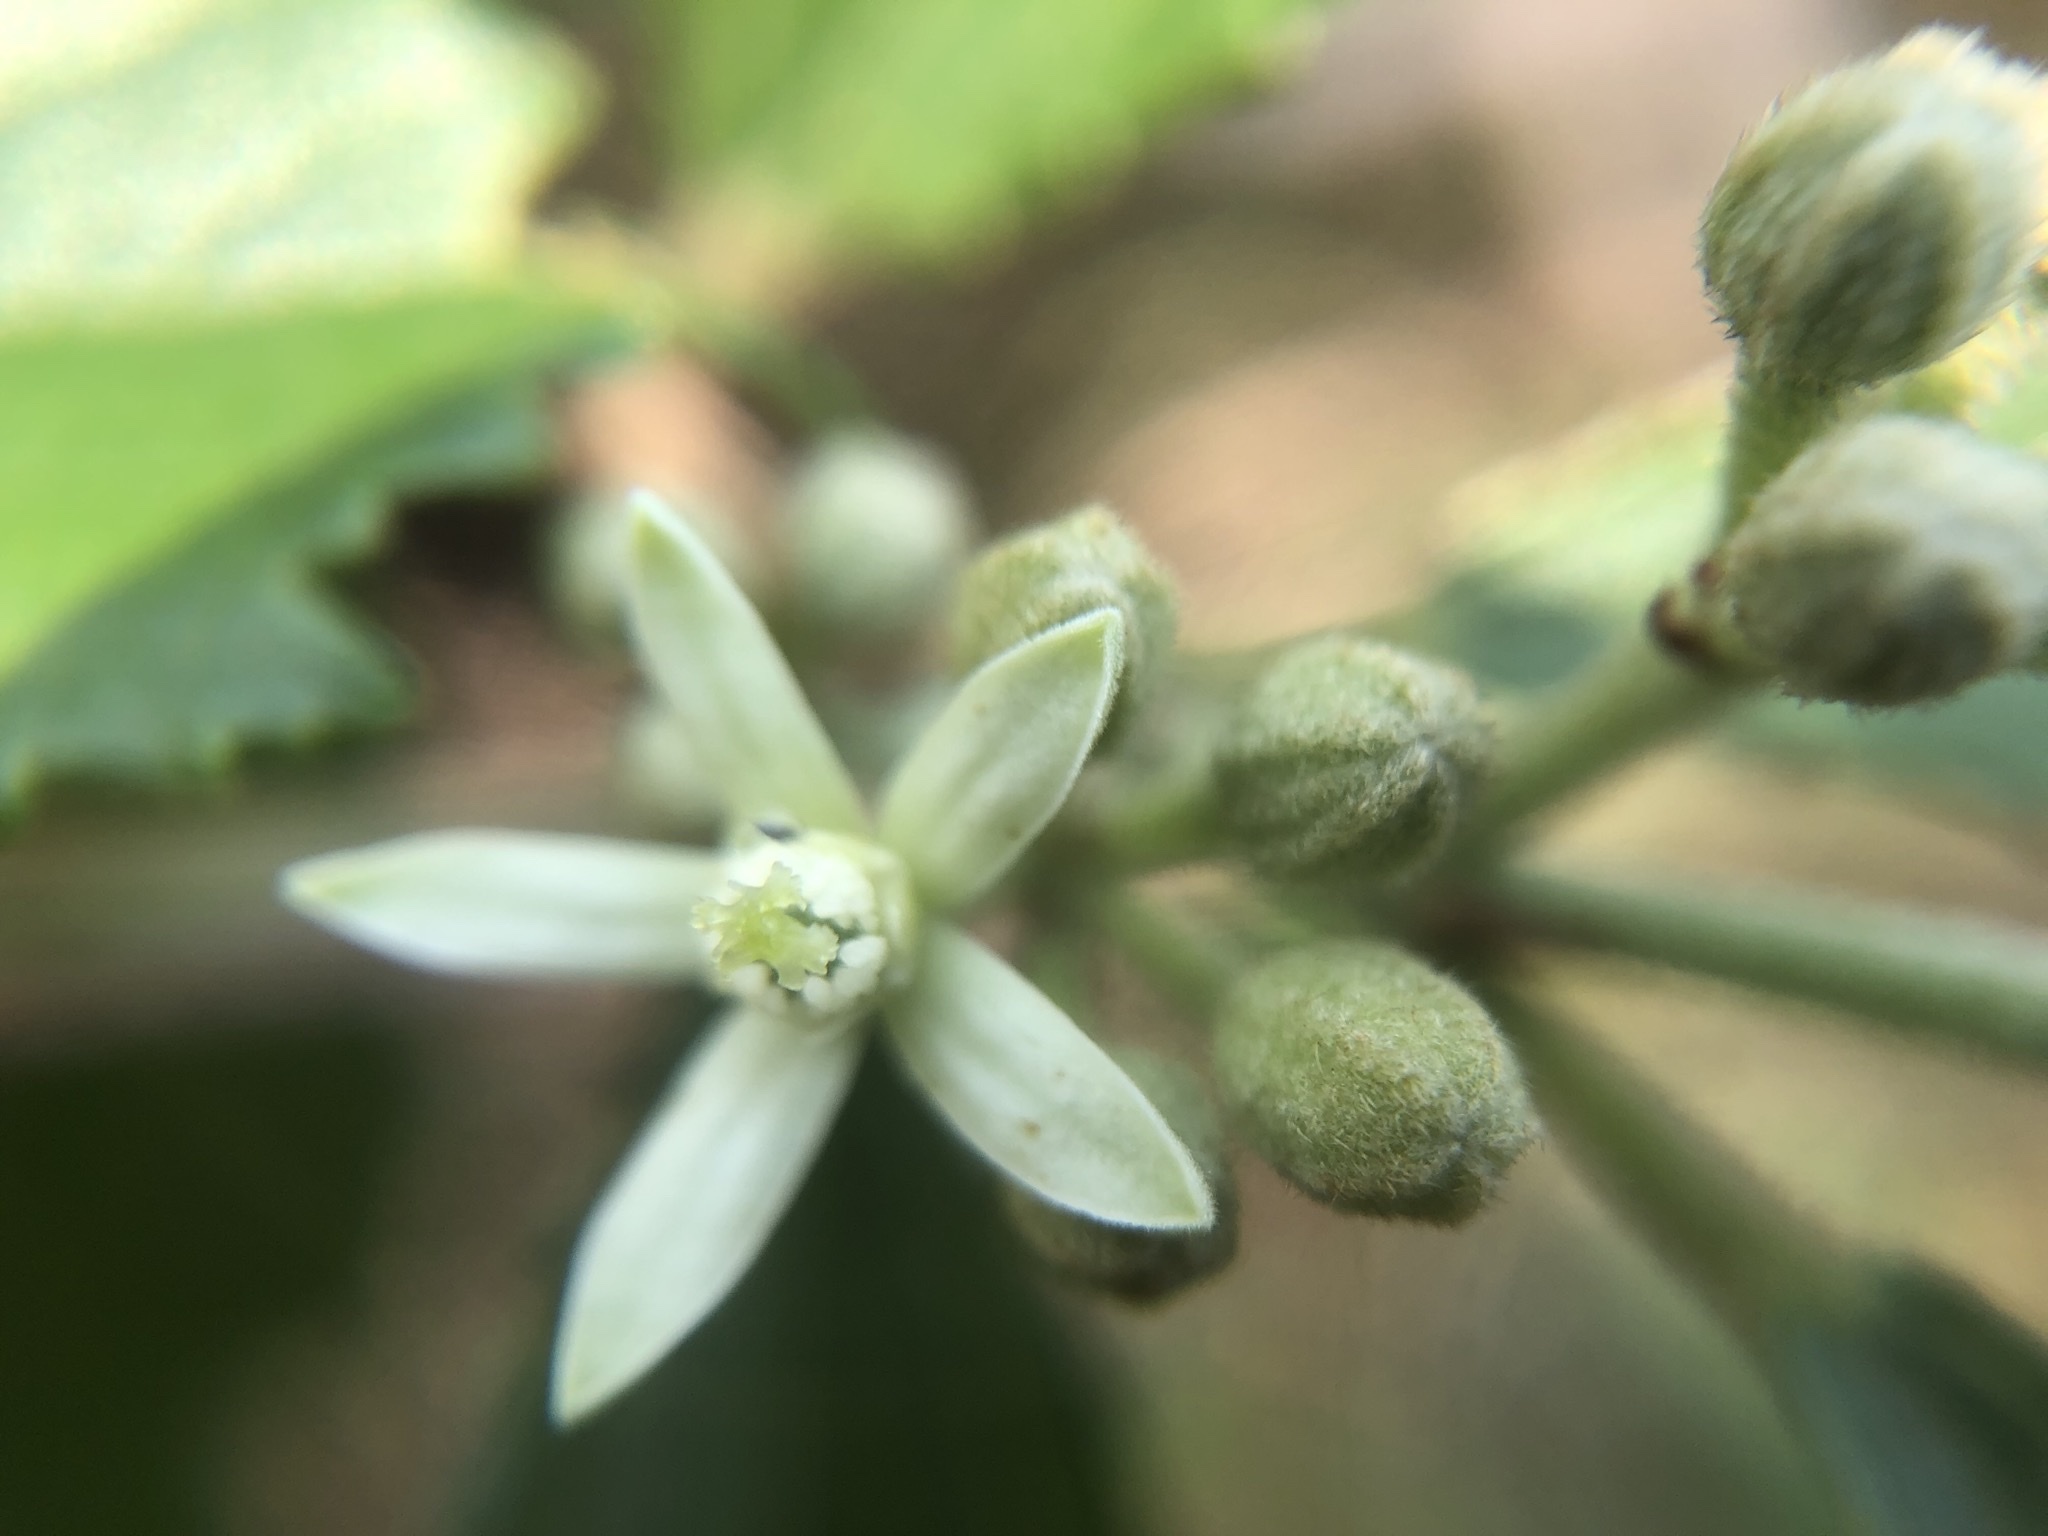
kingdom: Plantae
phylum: Tracheophyta
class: Magnoliopsida
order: Malvales
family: Malvaceae
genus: Grewia
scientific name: Grewia rhombifolia
